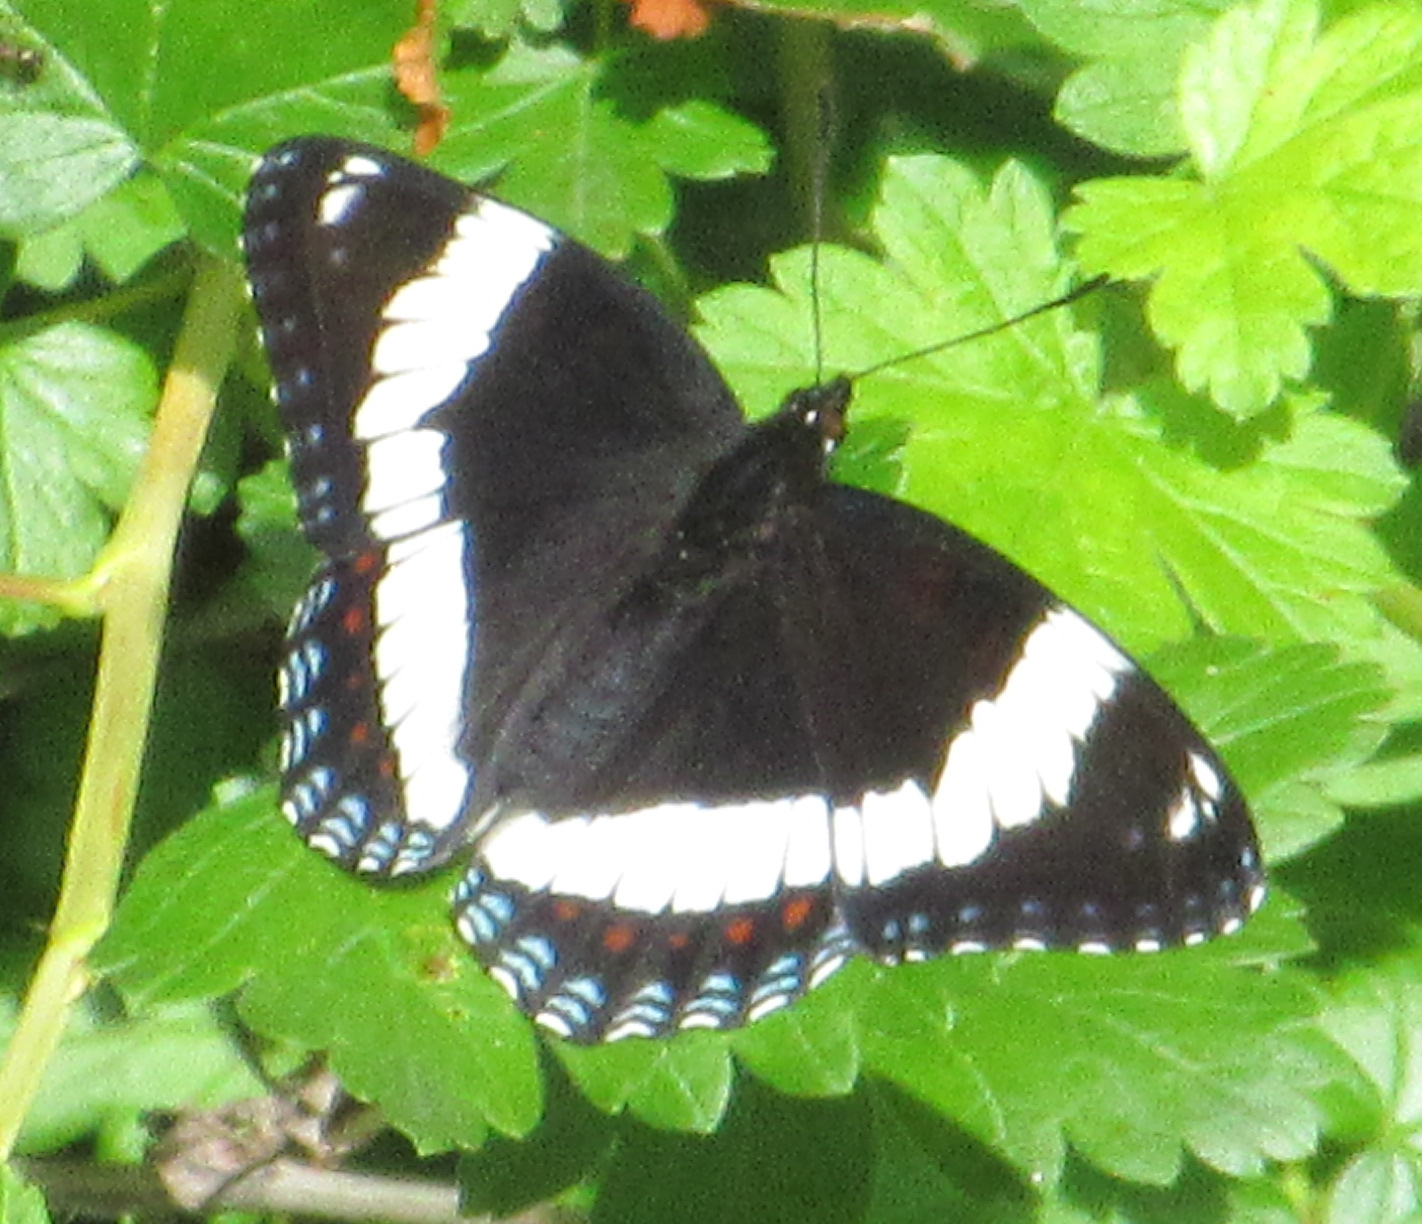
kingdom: Animalia
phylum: Arthropoda
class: Insecta
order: Lepidoptera
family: Nymphalidae
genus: Limenitis
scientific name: Limenitis arthemis
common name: Red-spotted admiral
